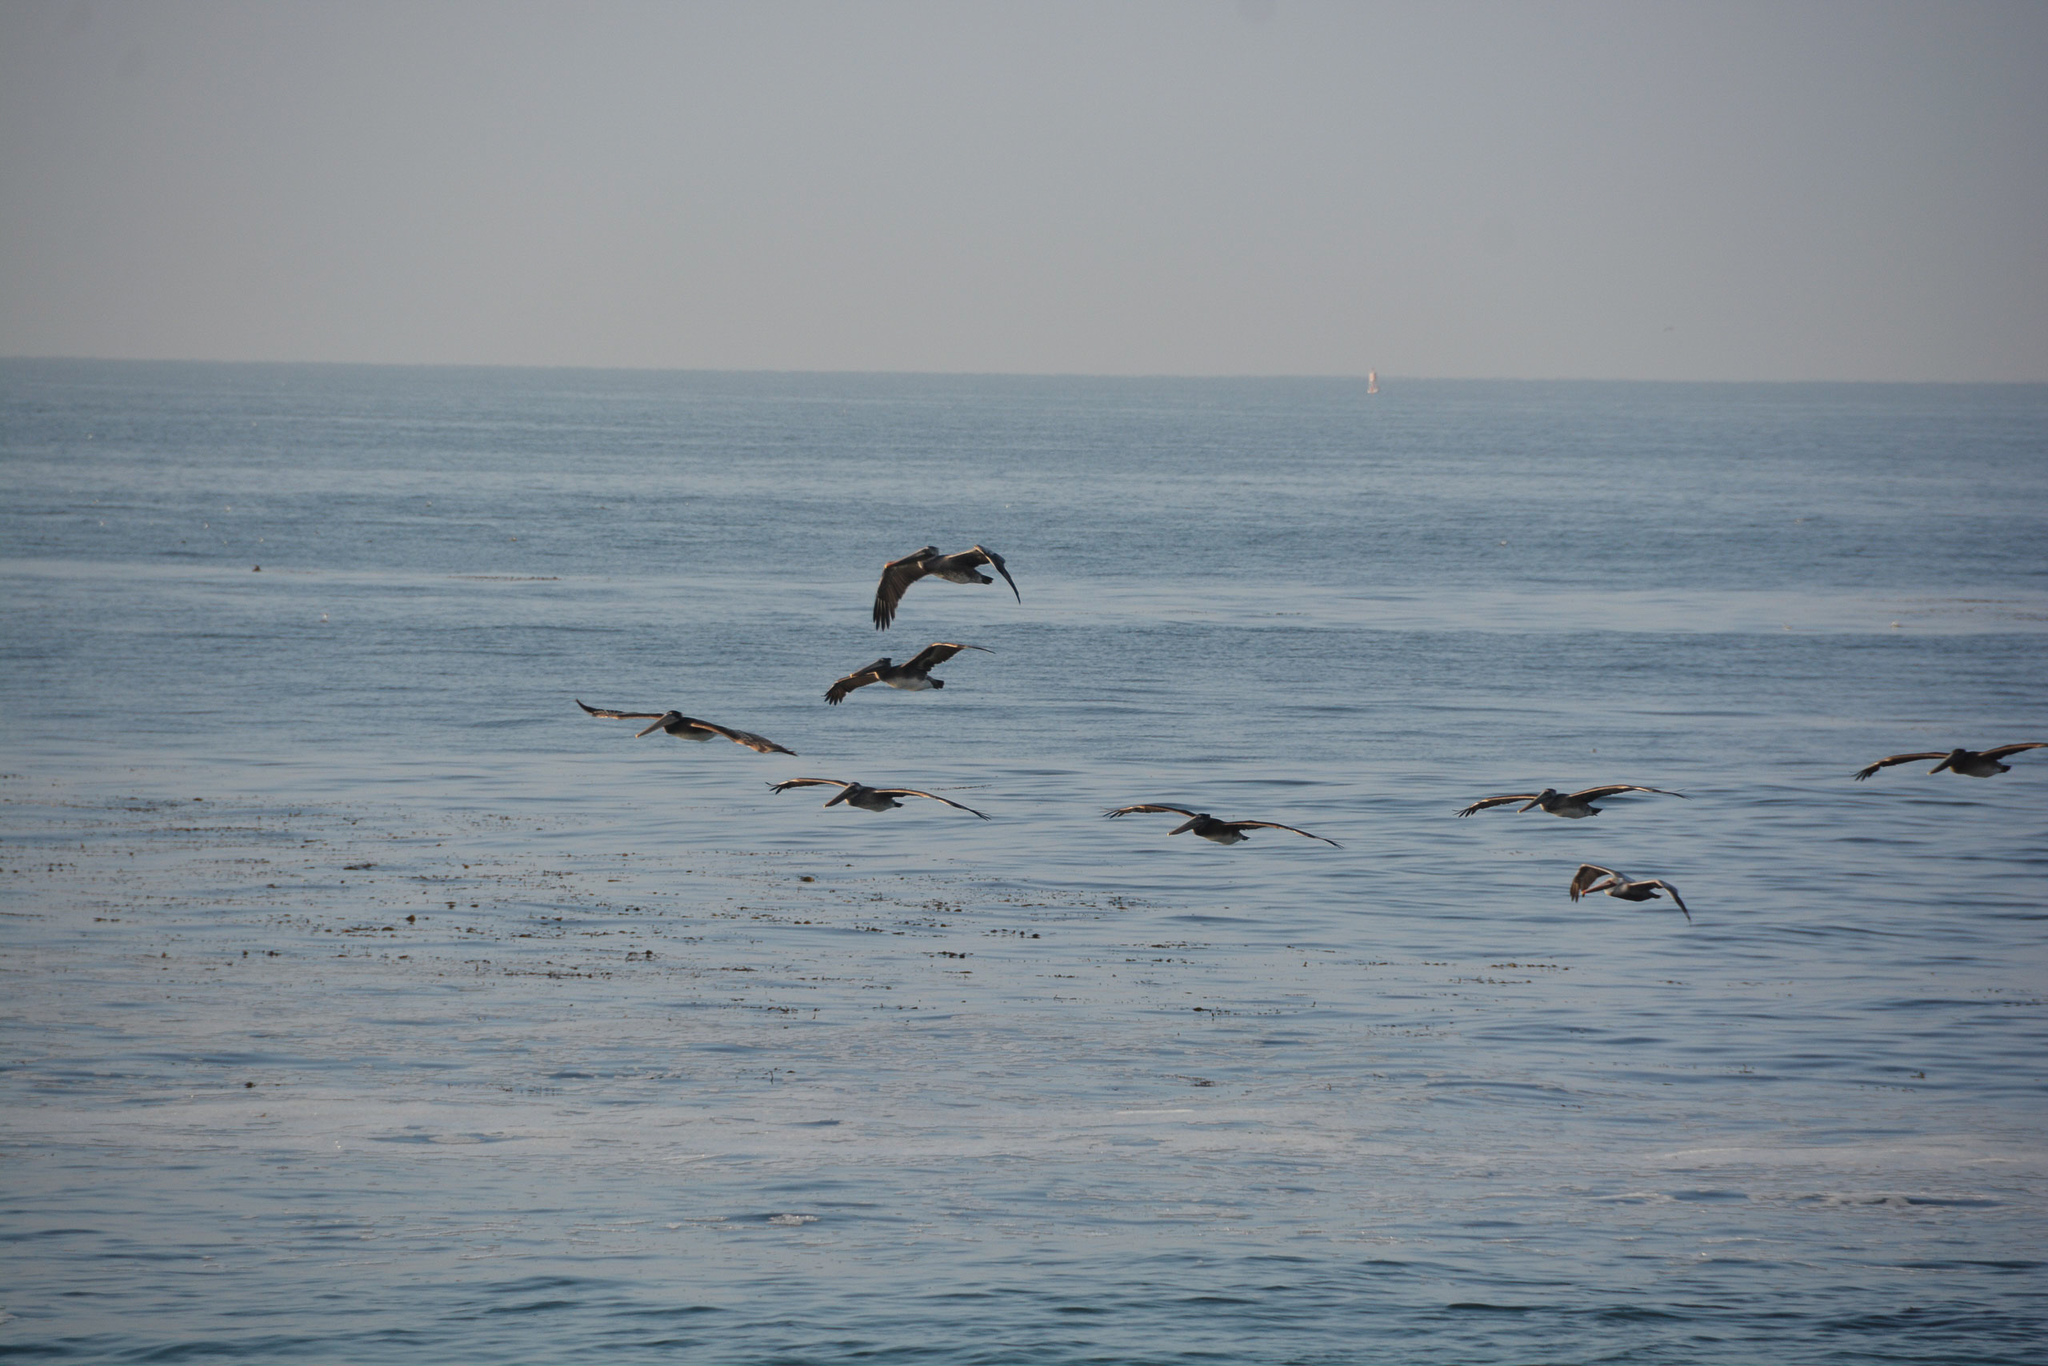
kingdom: Animalia
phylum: Chordata
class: Aves
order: Pelecaniformes
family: Pelecanidae
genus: Pelecanus
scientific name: Pelecanus occidentalis
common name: Brown pelican
